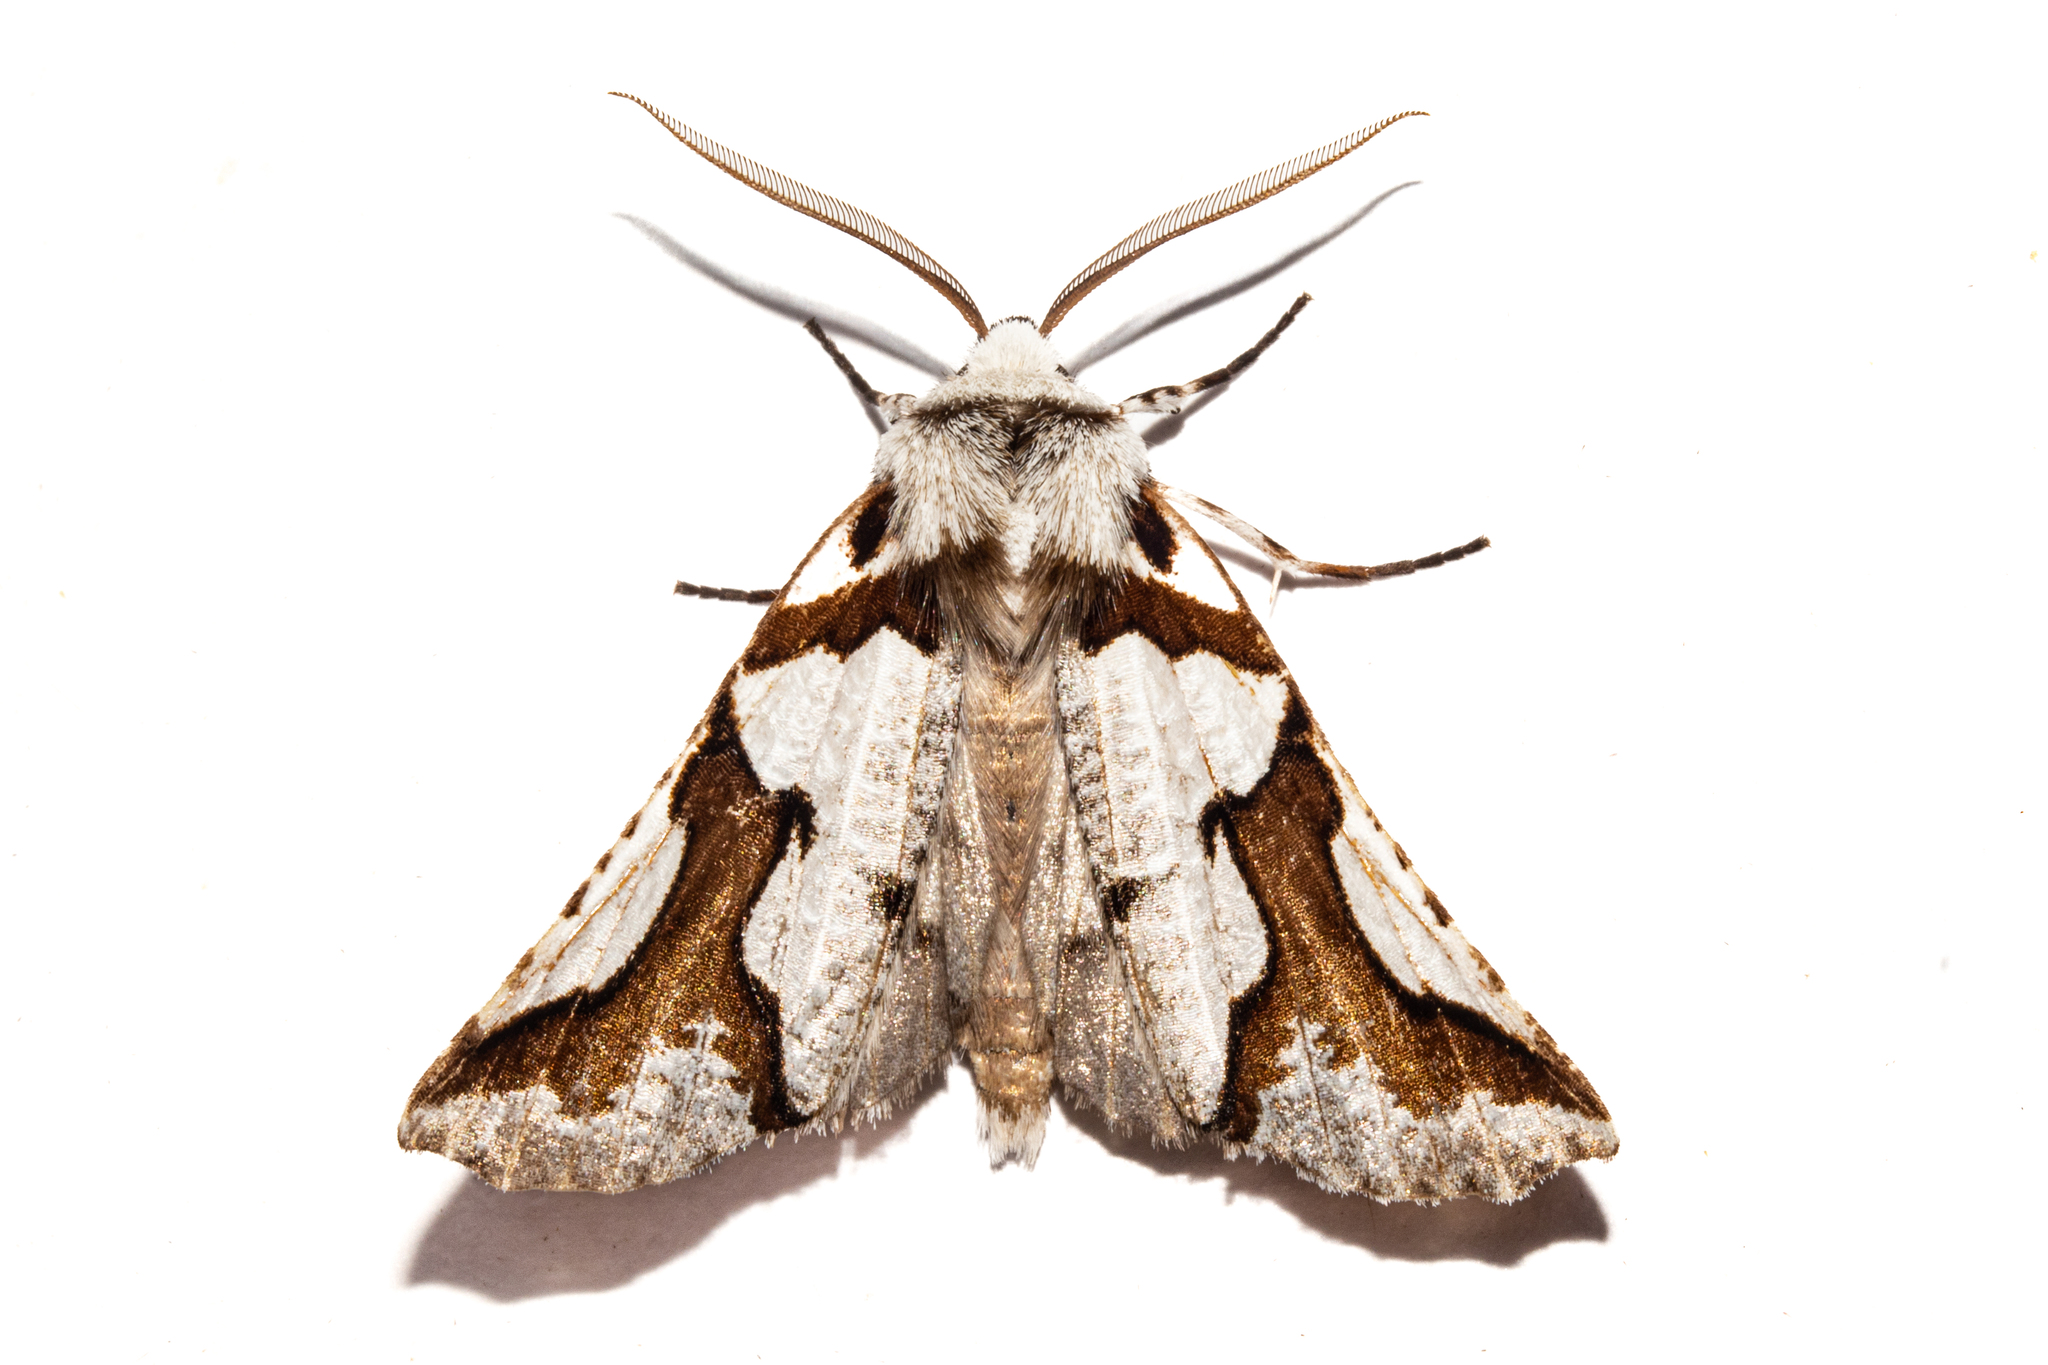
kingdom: Animalia
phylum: Arthropoda
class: Insecta
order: Lepidoptera
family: Geometridae
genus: Declana
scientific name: Declana
